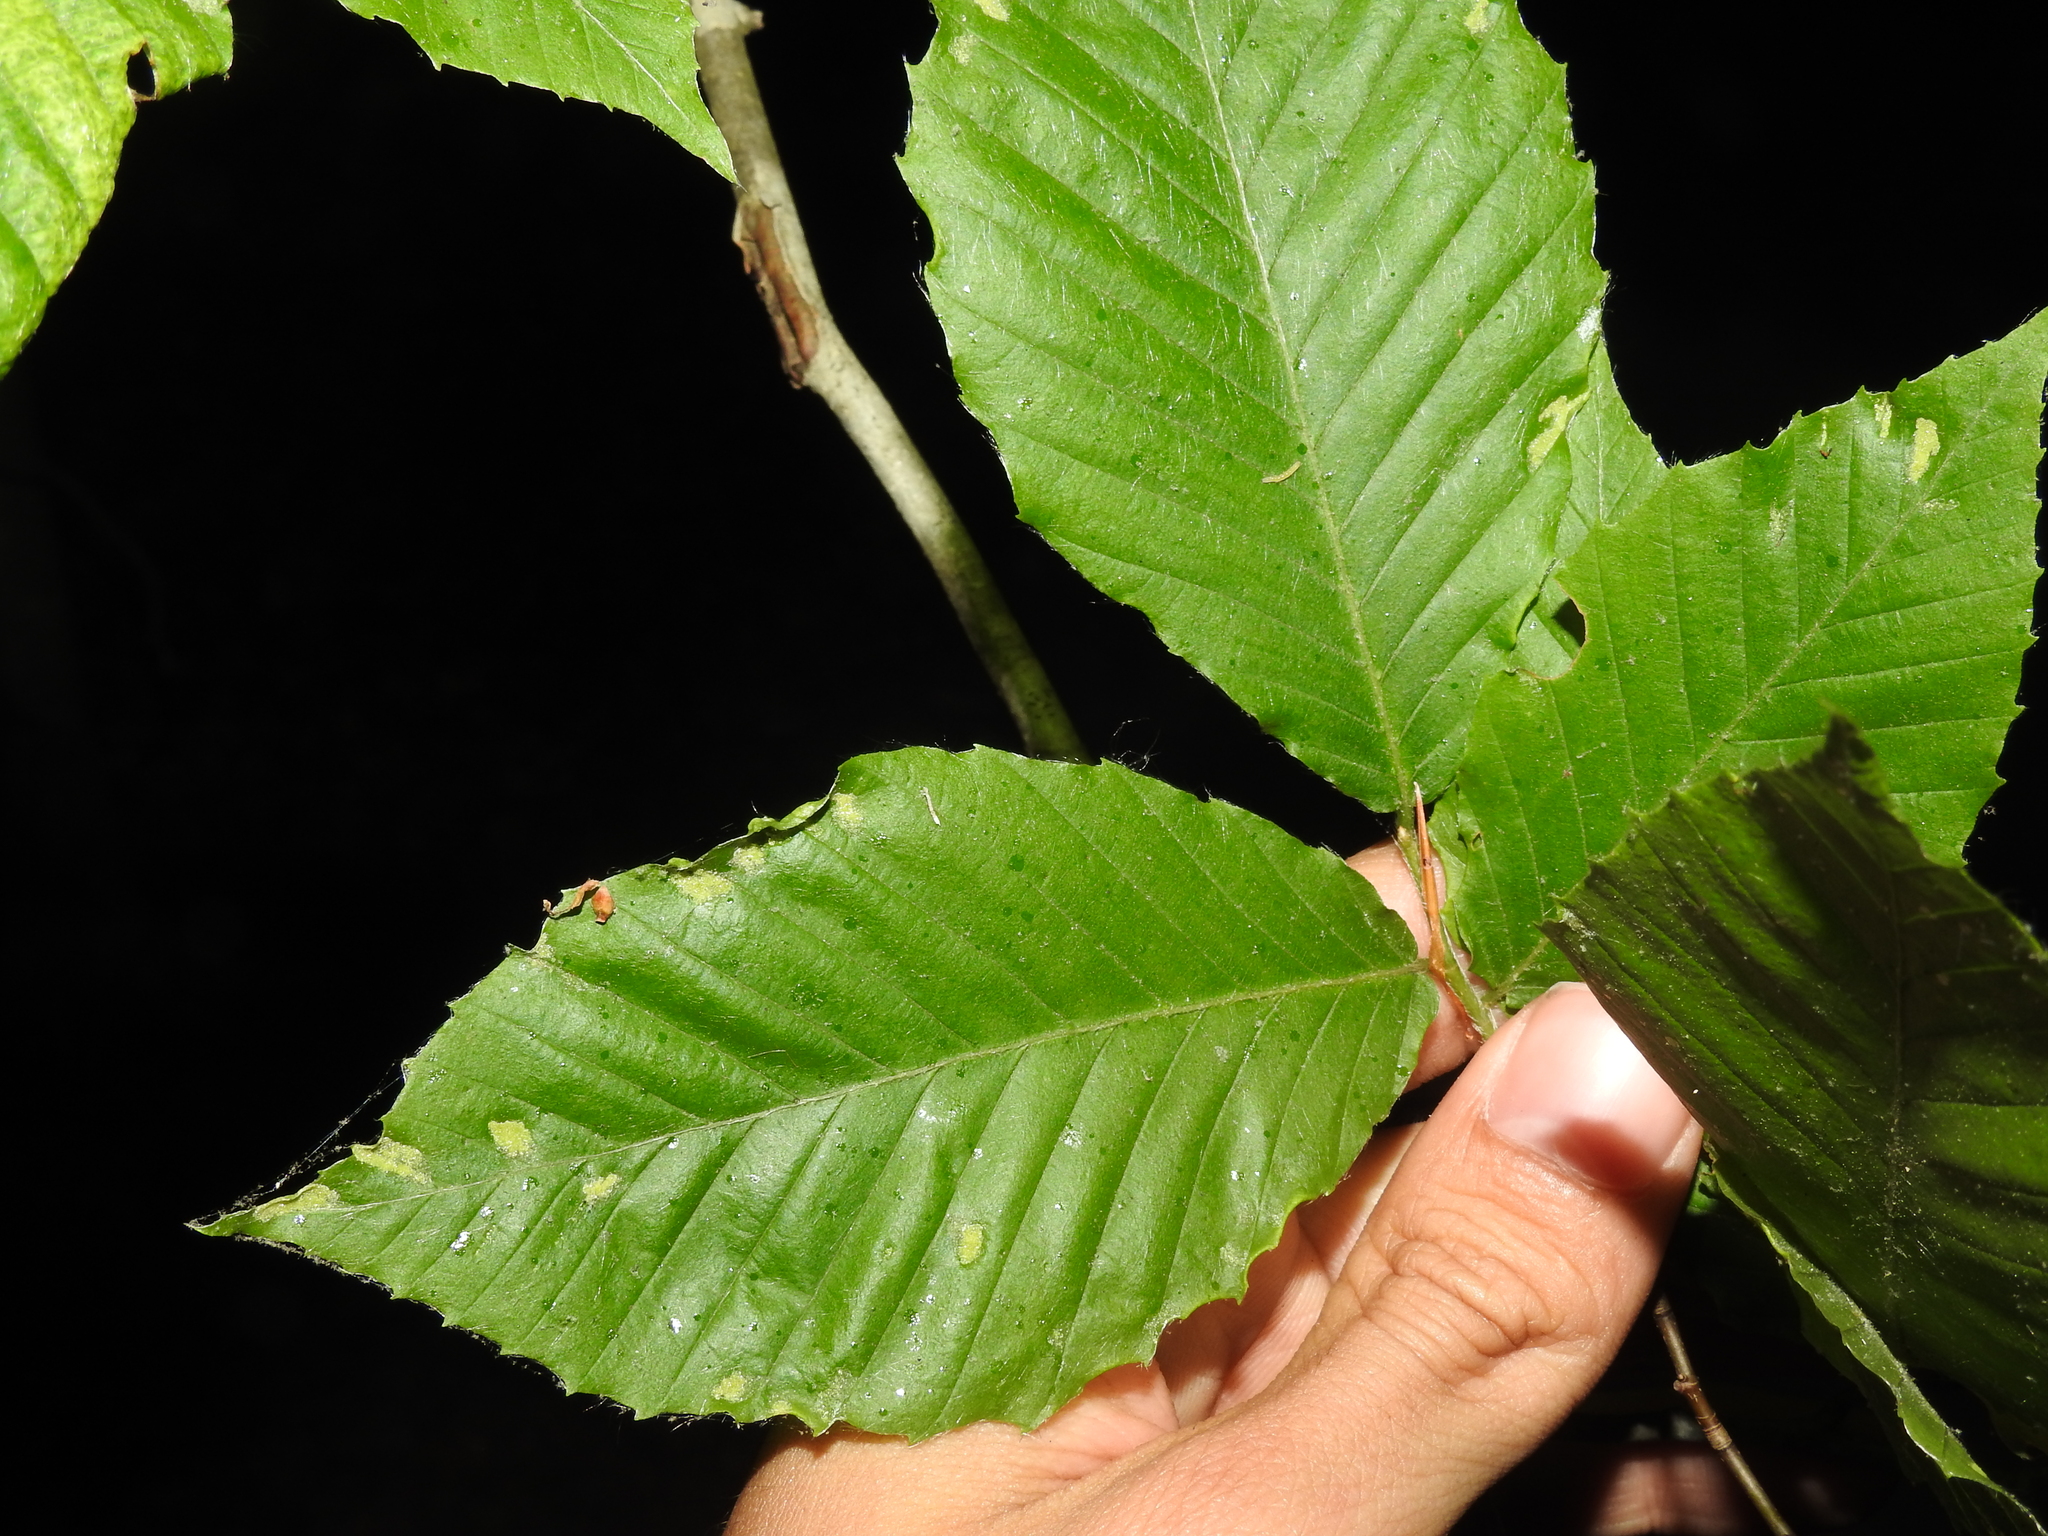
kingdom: Animalia
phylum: Arthropoda
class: Arachnida
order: Trombidiformes
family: Eriophyidae
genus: Acalitus
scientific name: Acalitus
